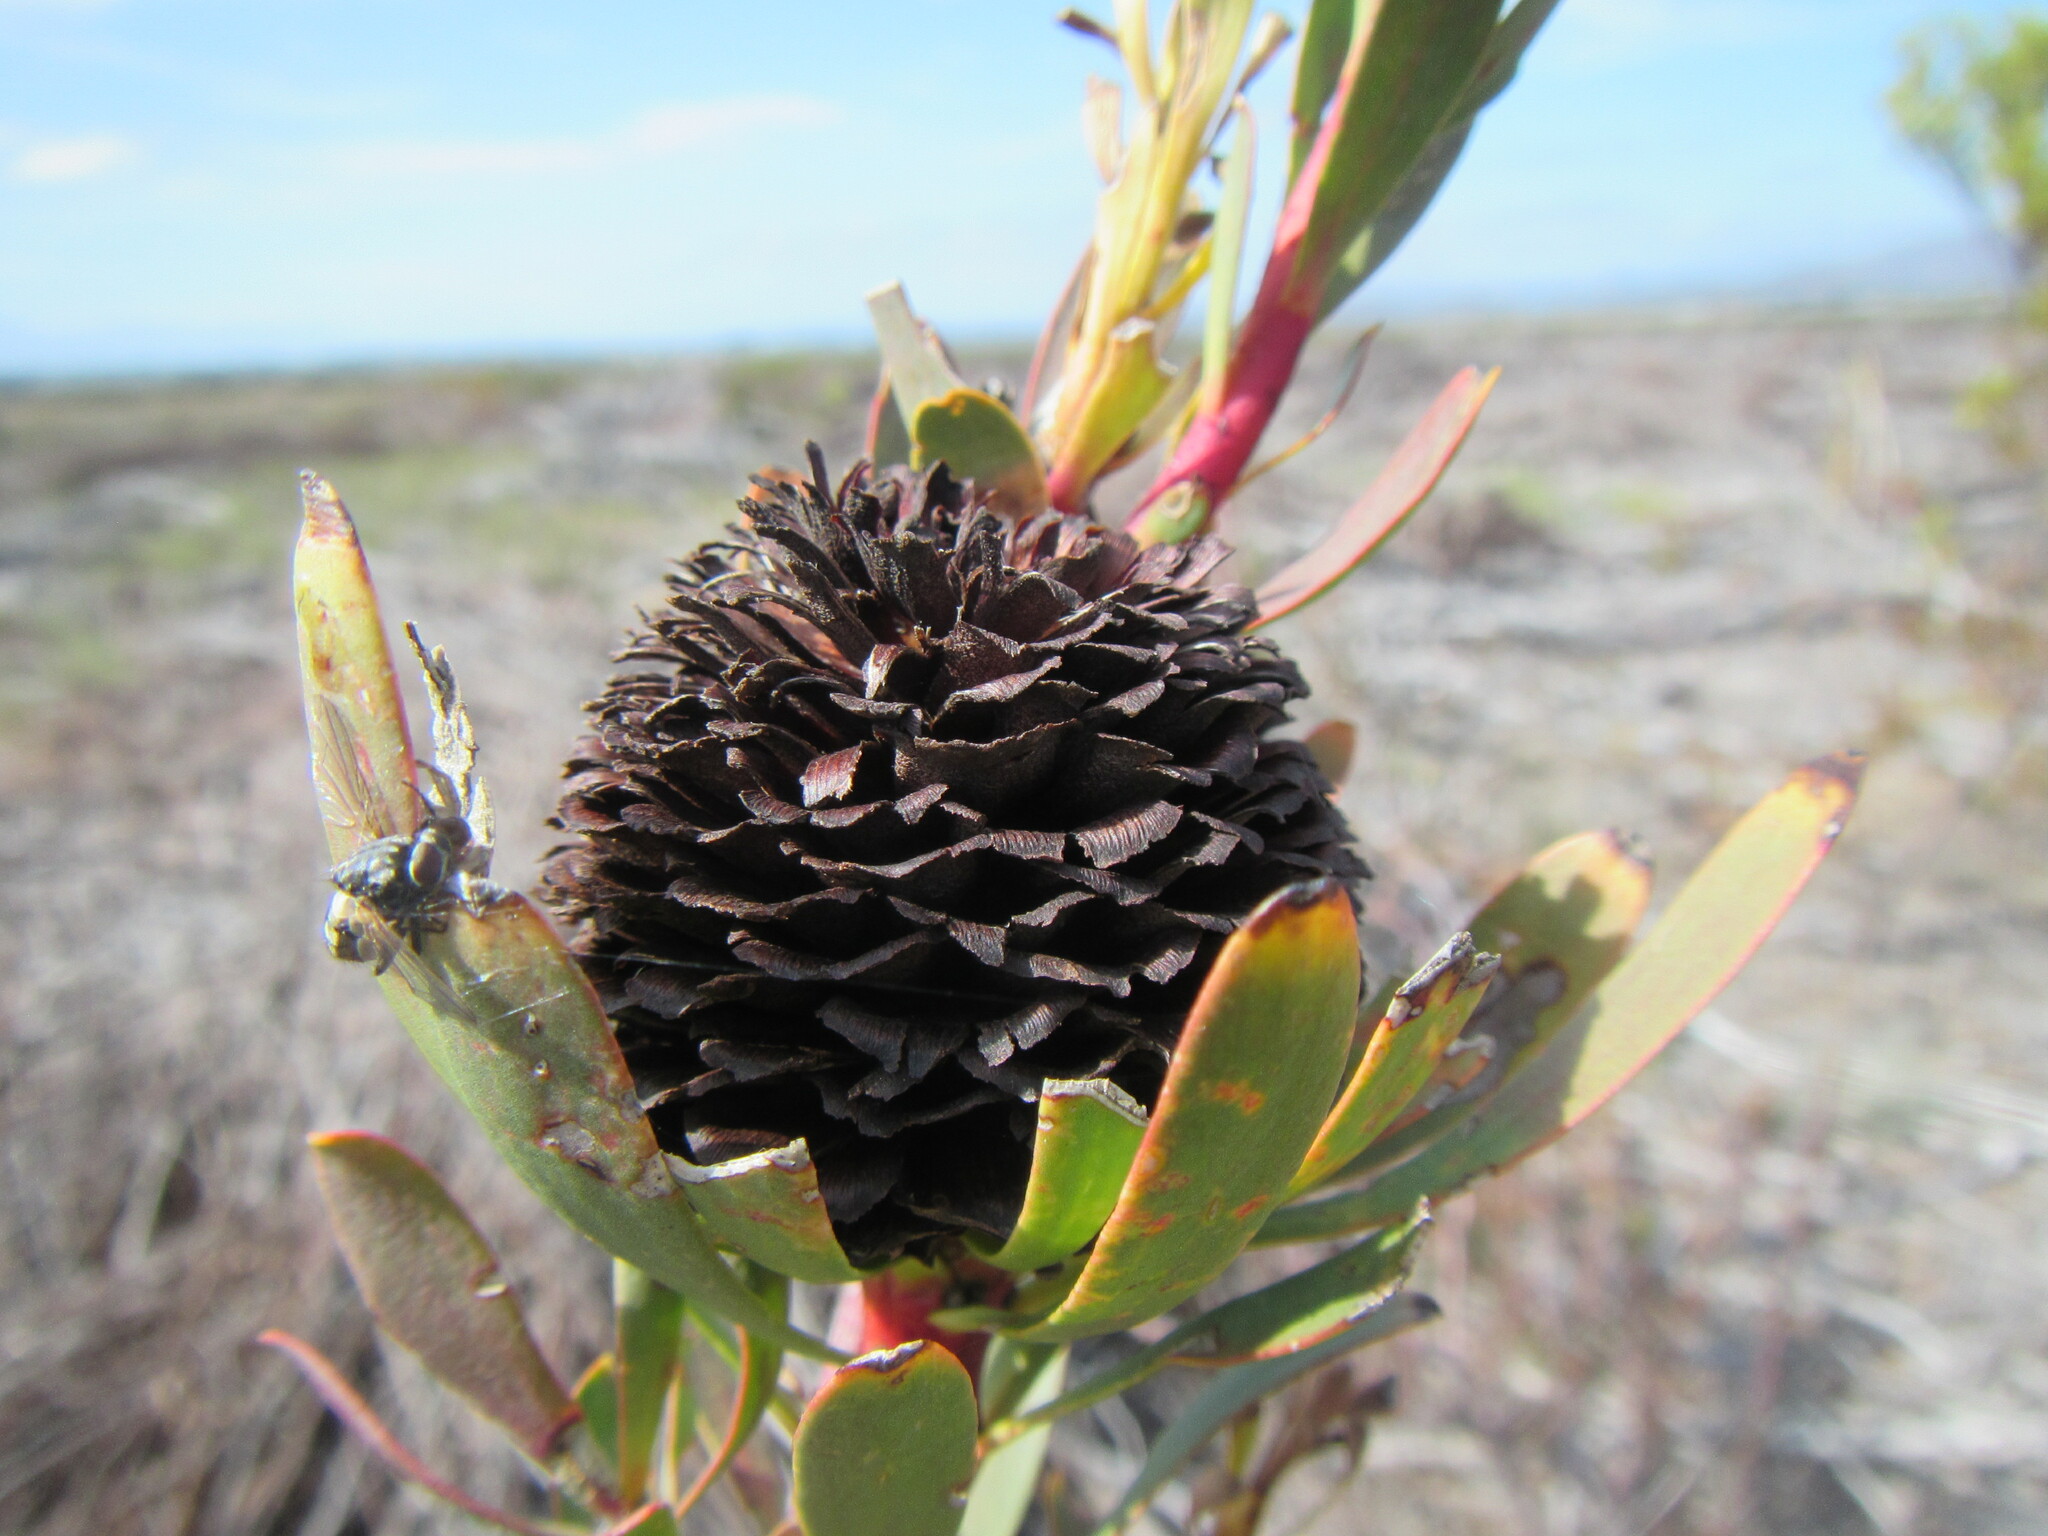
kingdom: Plantae
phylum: Tracheophyta
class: Magnoliopsida
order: Proteales
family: Proteaceae
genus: Leucadendron
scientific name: Leucadendron chamelaea
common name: Witsenberg conebush
